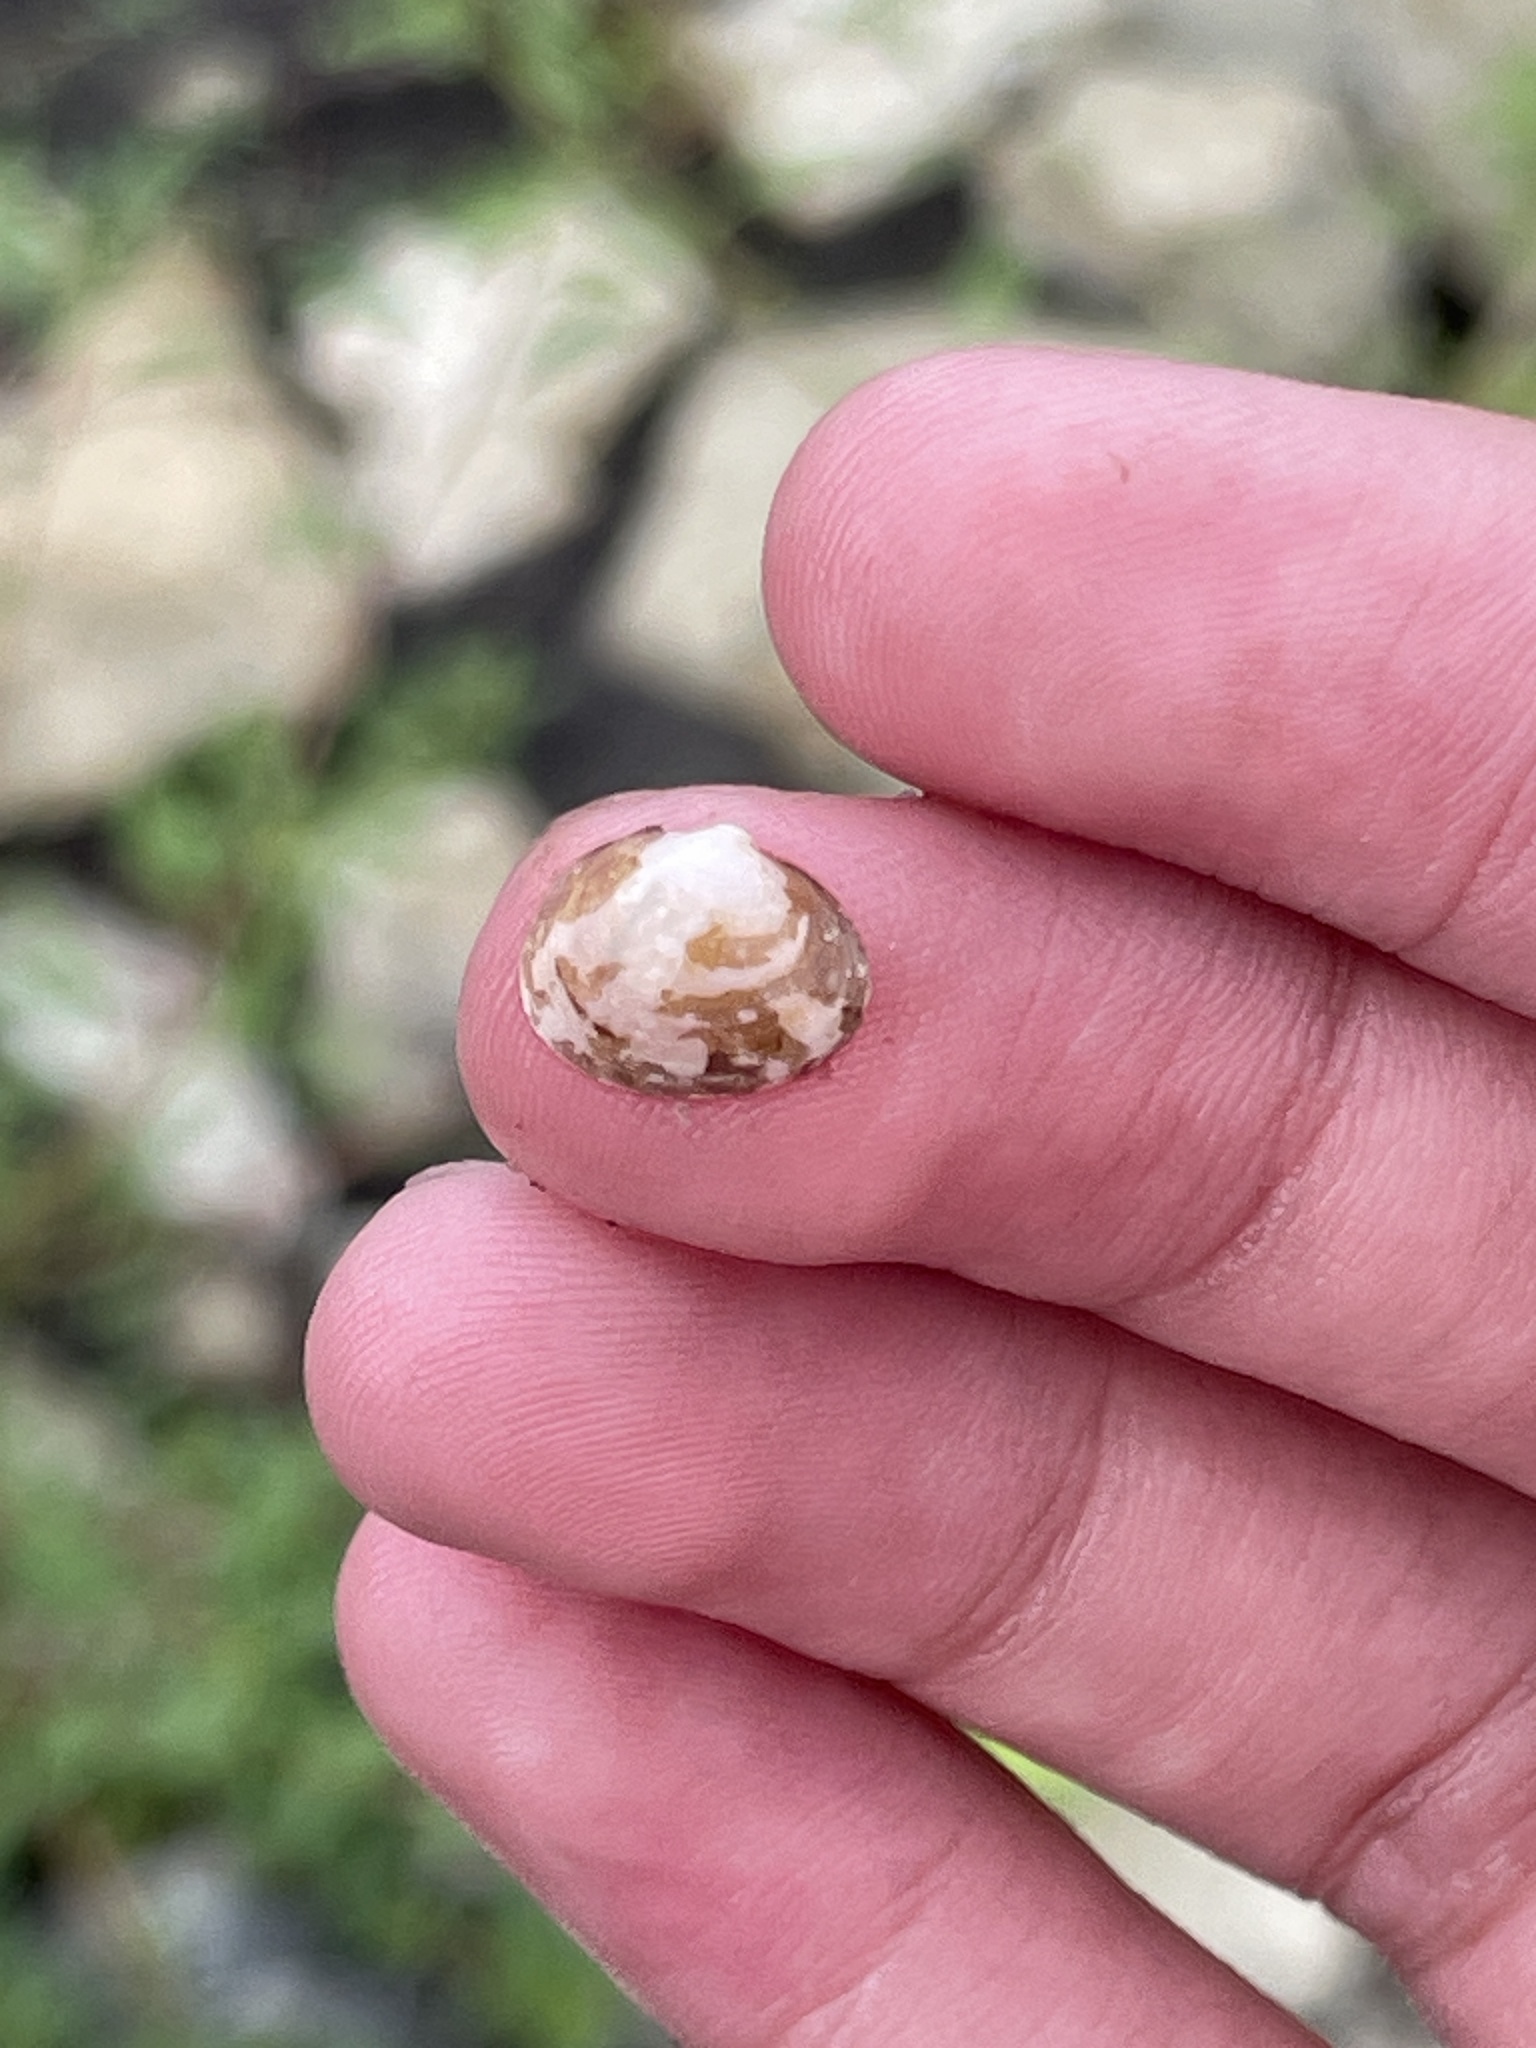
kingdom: Animalia
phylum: Mollusca
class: Bivalvia
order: Sphaeriida
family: Sphaeriidae
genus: Musculium
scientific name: Musculium lacustre
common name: Lake fingernailclam
